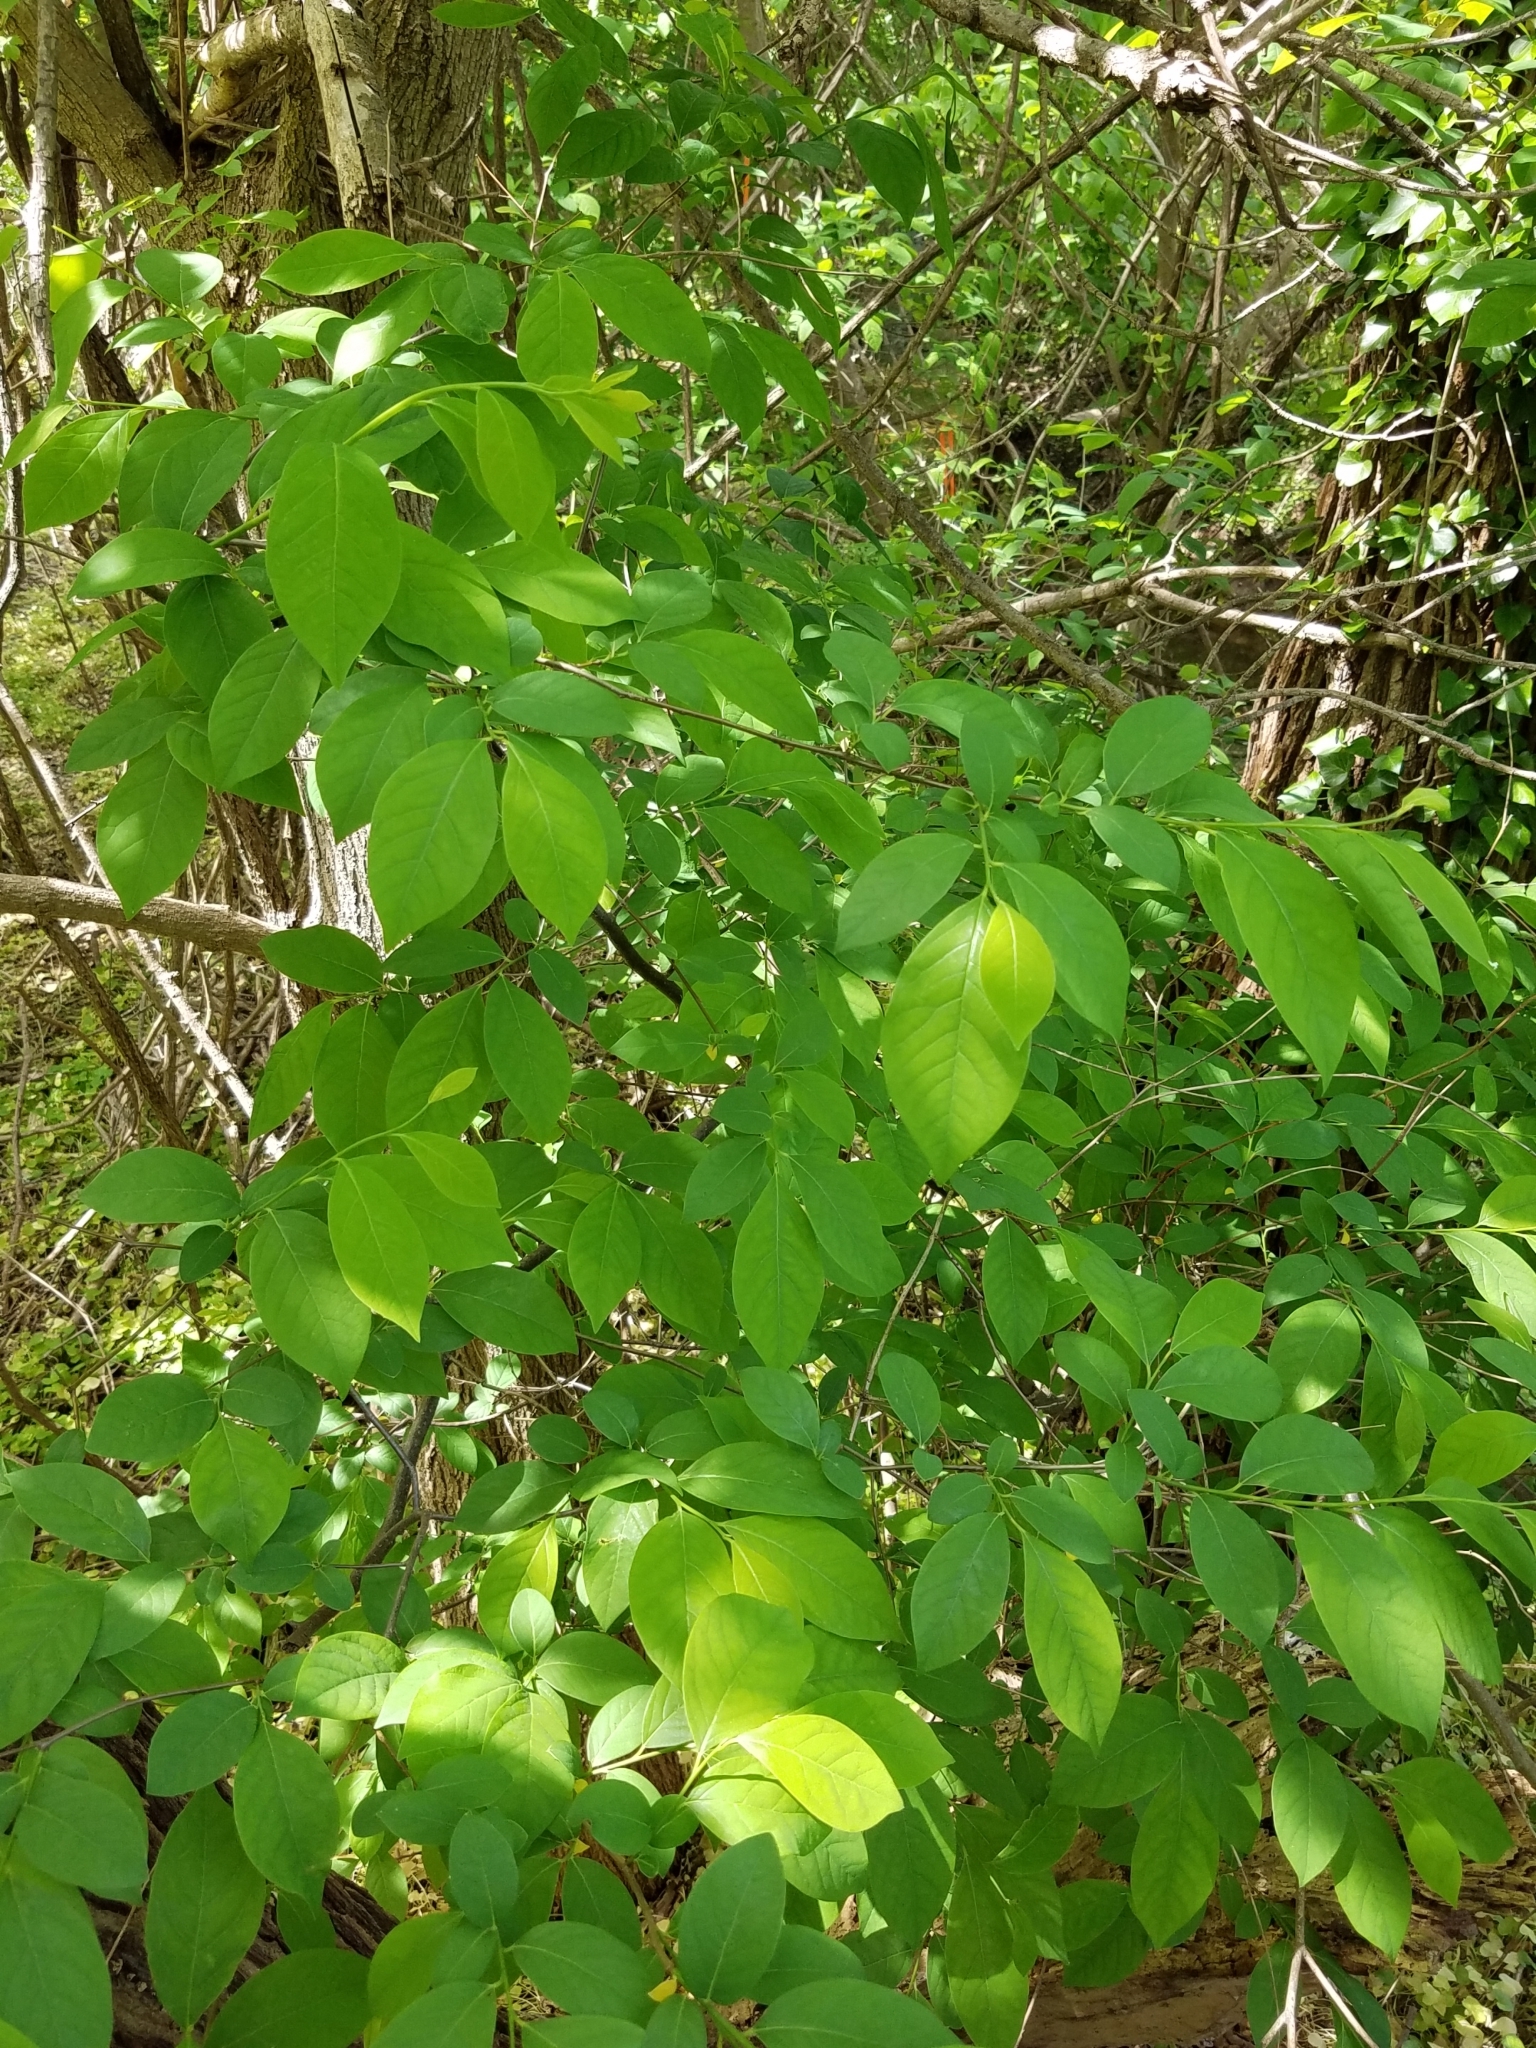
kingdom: Plantae
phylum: Tracheophyta
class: Magnoliopsida
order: Laurales
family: Lauraceae
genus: Lindera
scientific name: Lindera benzoin
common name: Spicebush
